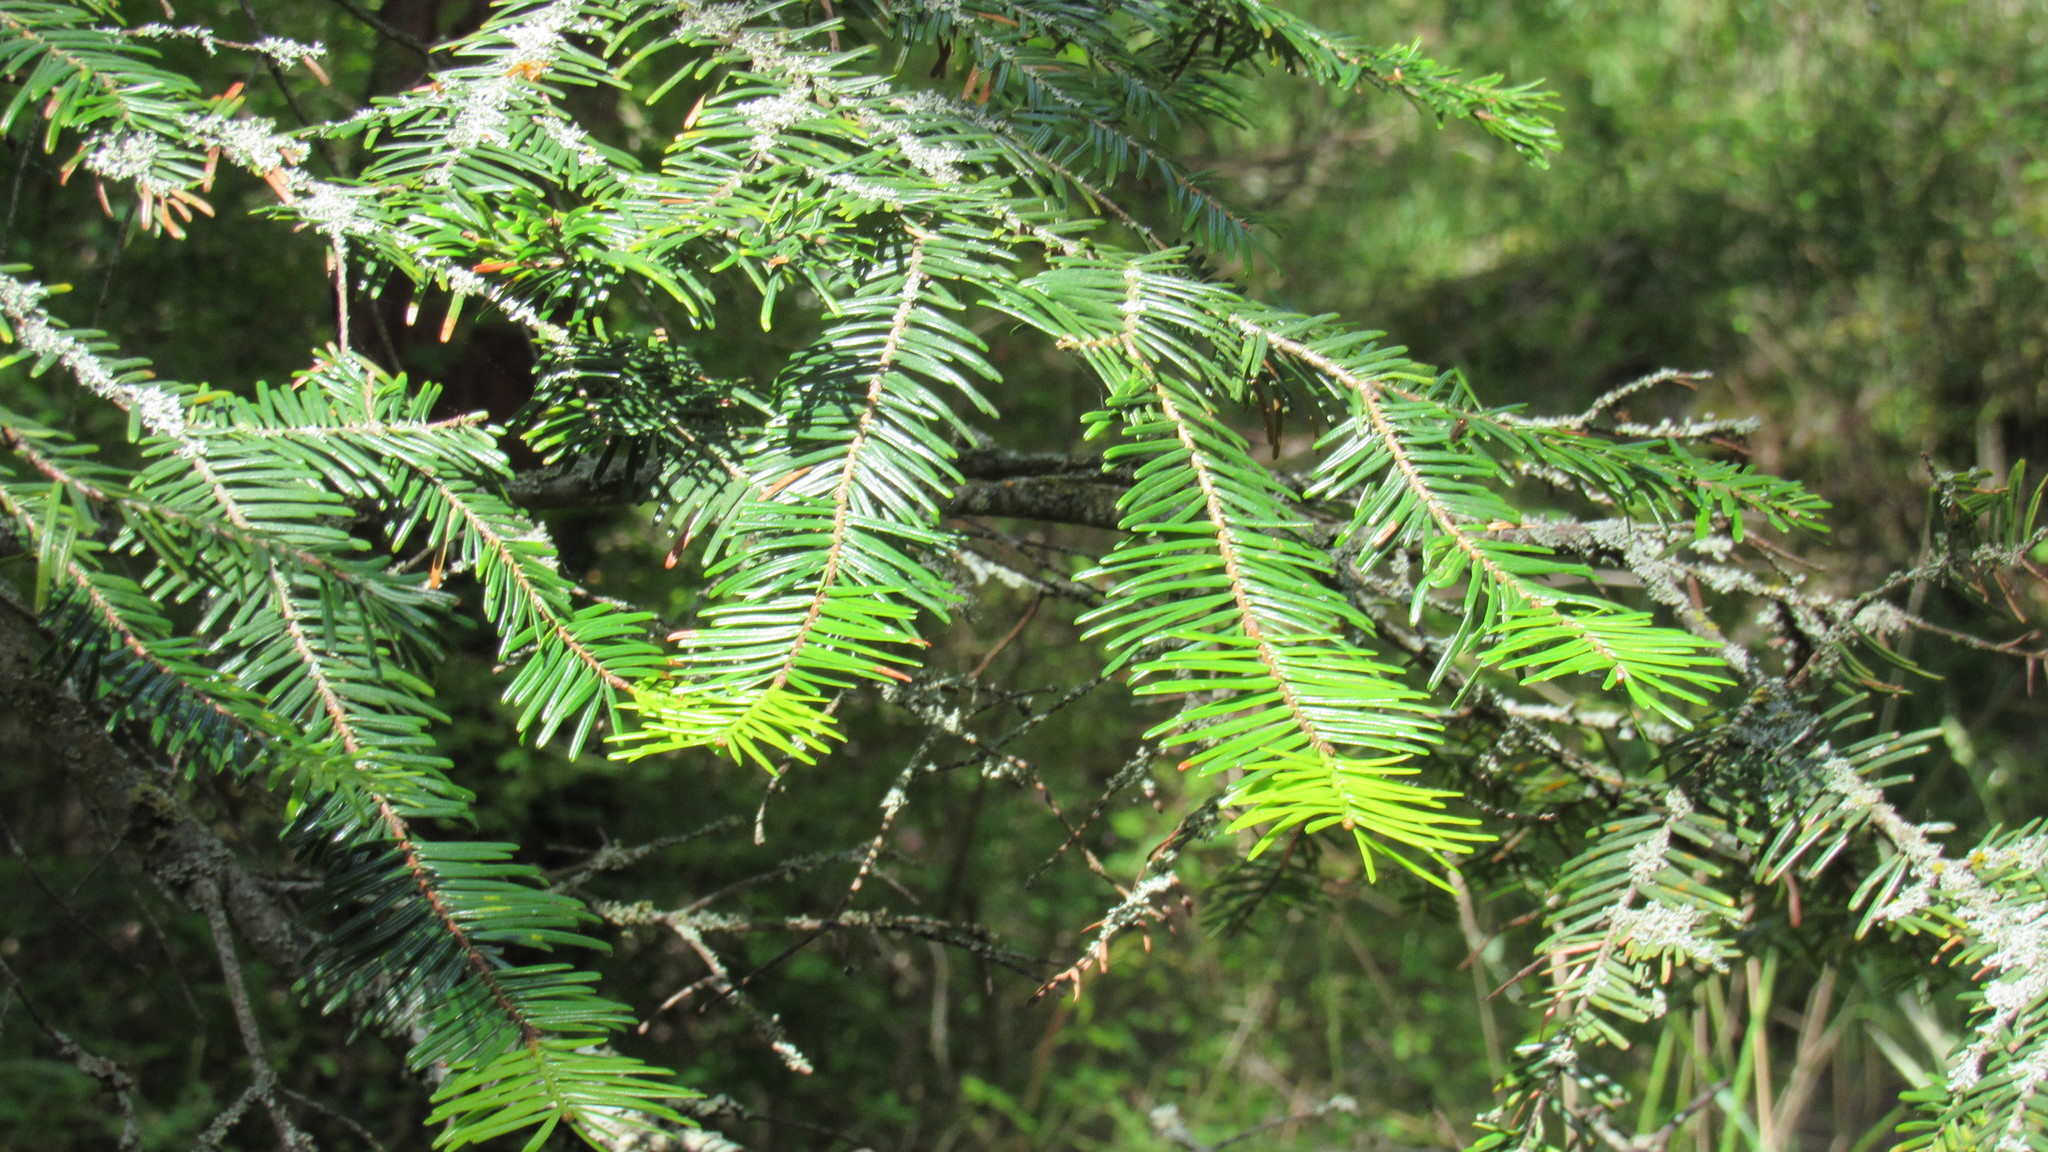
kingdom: Plantae
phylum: Tracheophyta
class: Pinopsida
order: Pinales
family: Pinaceae
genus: Abies
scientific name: Abies grandis
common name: Giant fir
